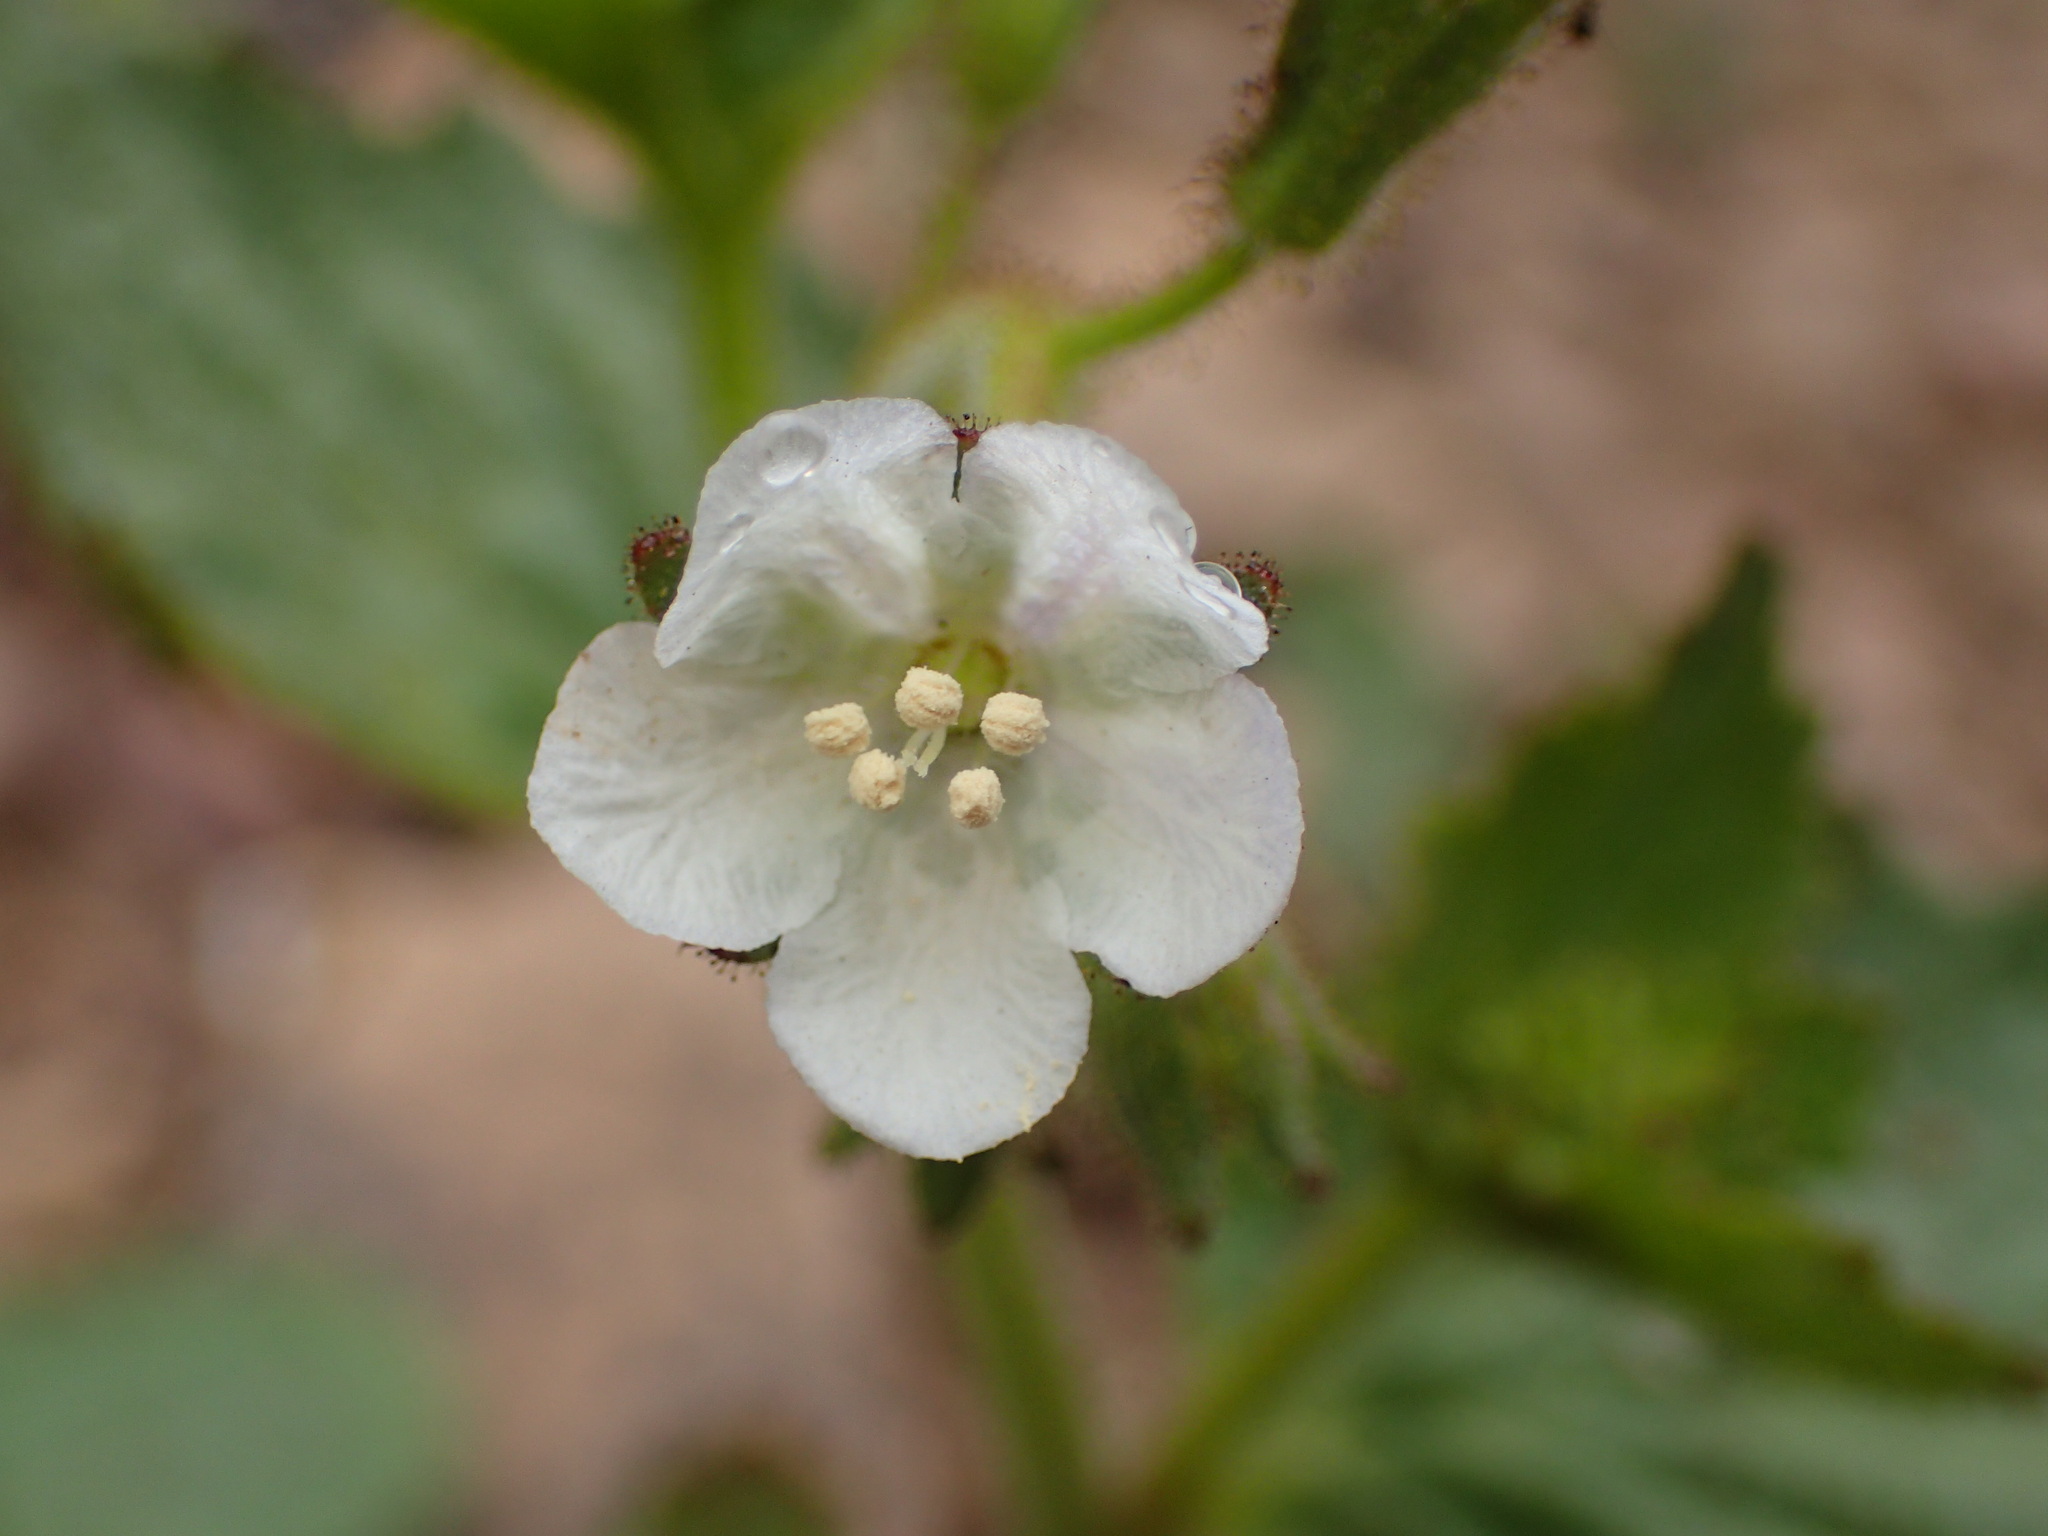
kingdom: Plantae
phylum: Tracheophyta
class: Magnoliopsida
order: Boraginales
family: Hydrophyllaceae
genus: Phacelia
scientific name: Phacelia viscida
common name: Sticky phacelia
